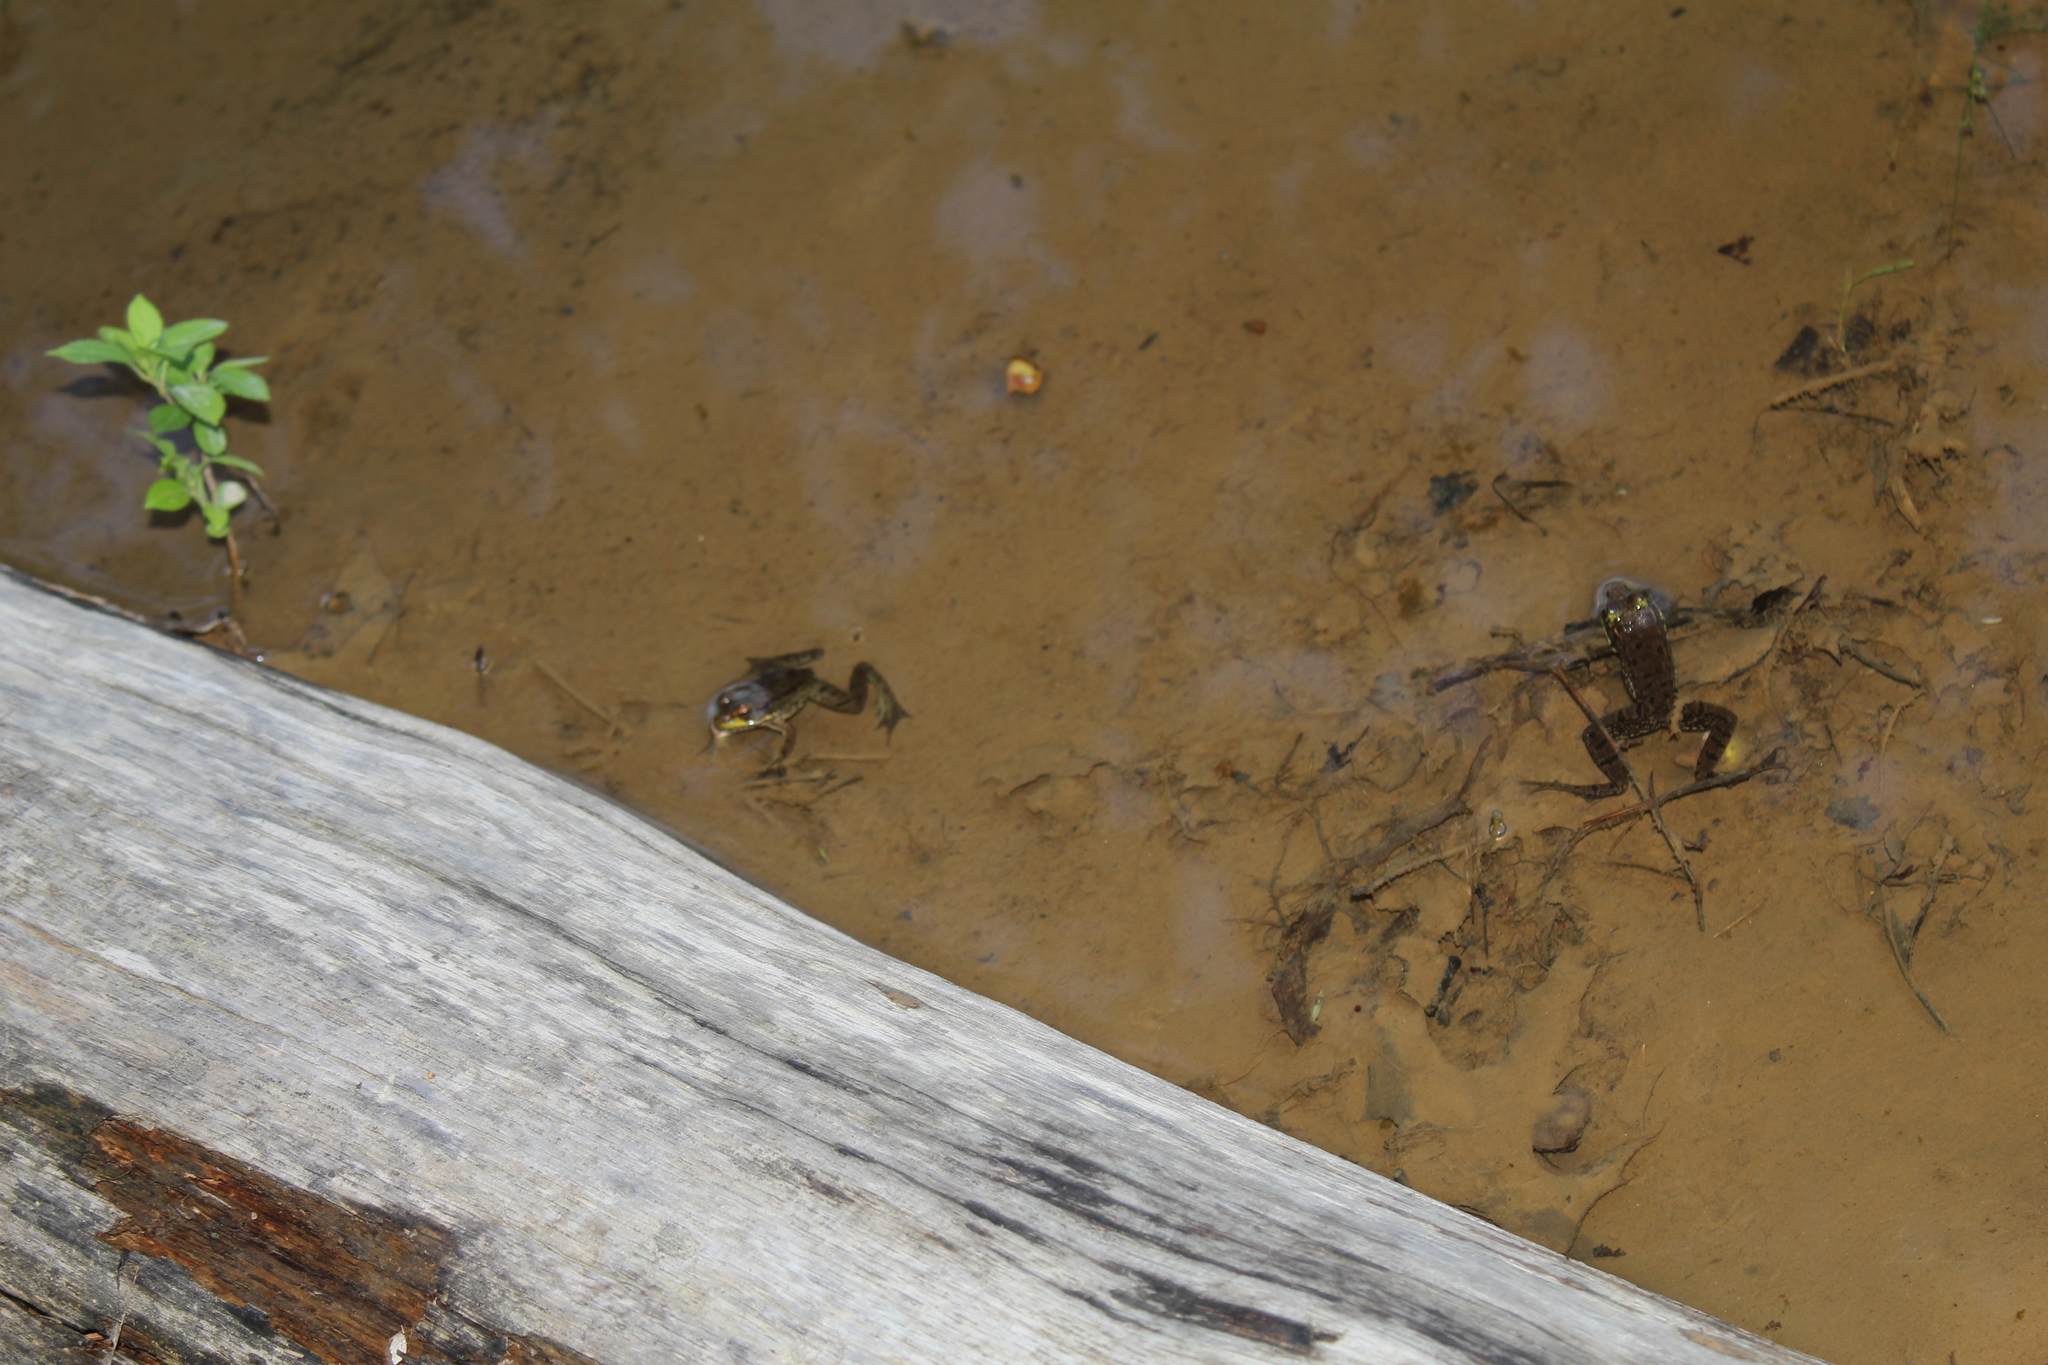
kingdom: Animalia
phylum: Chordata
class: Amphibia
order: Anura
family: Ranidae
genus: Lithobates
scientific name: Lithobates clamitans
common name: Green frog
